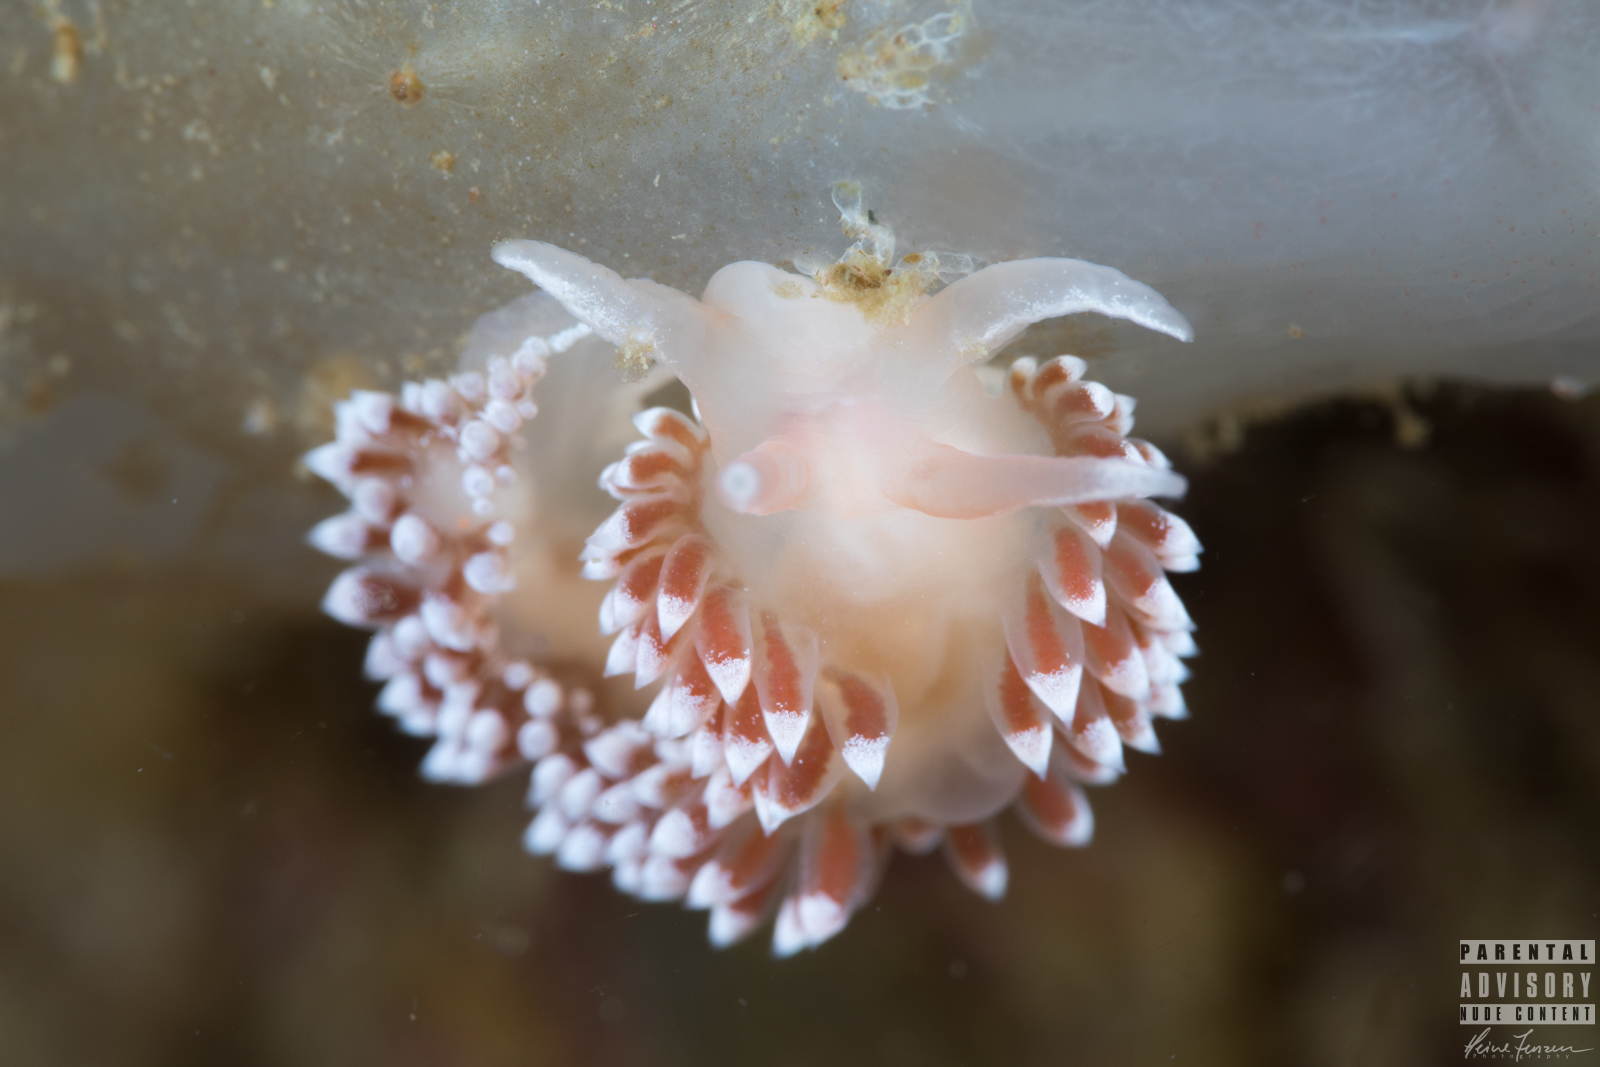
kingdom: Animalia
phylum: Mollusca
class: Gastropoda
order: Nudibranchia
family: Coryphellidae
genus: Coryphella
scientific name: Coryphella verrucosa
